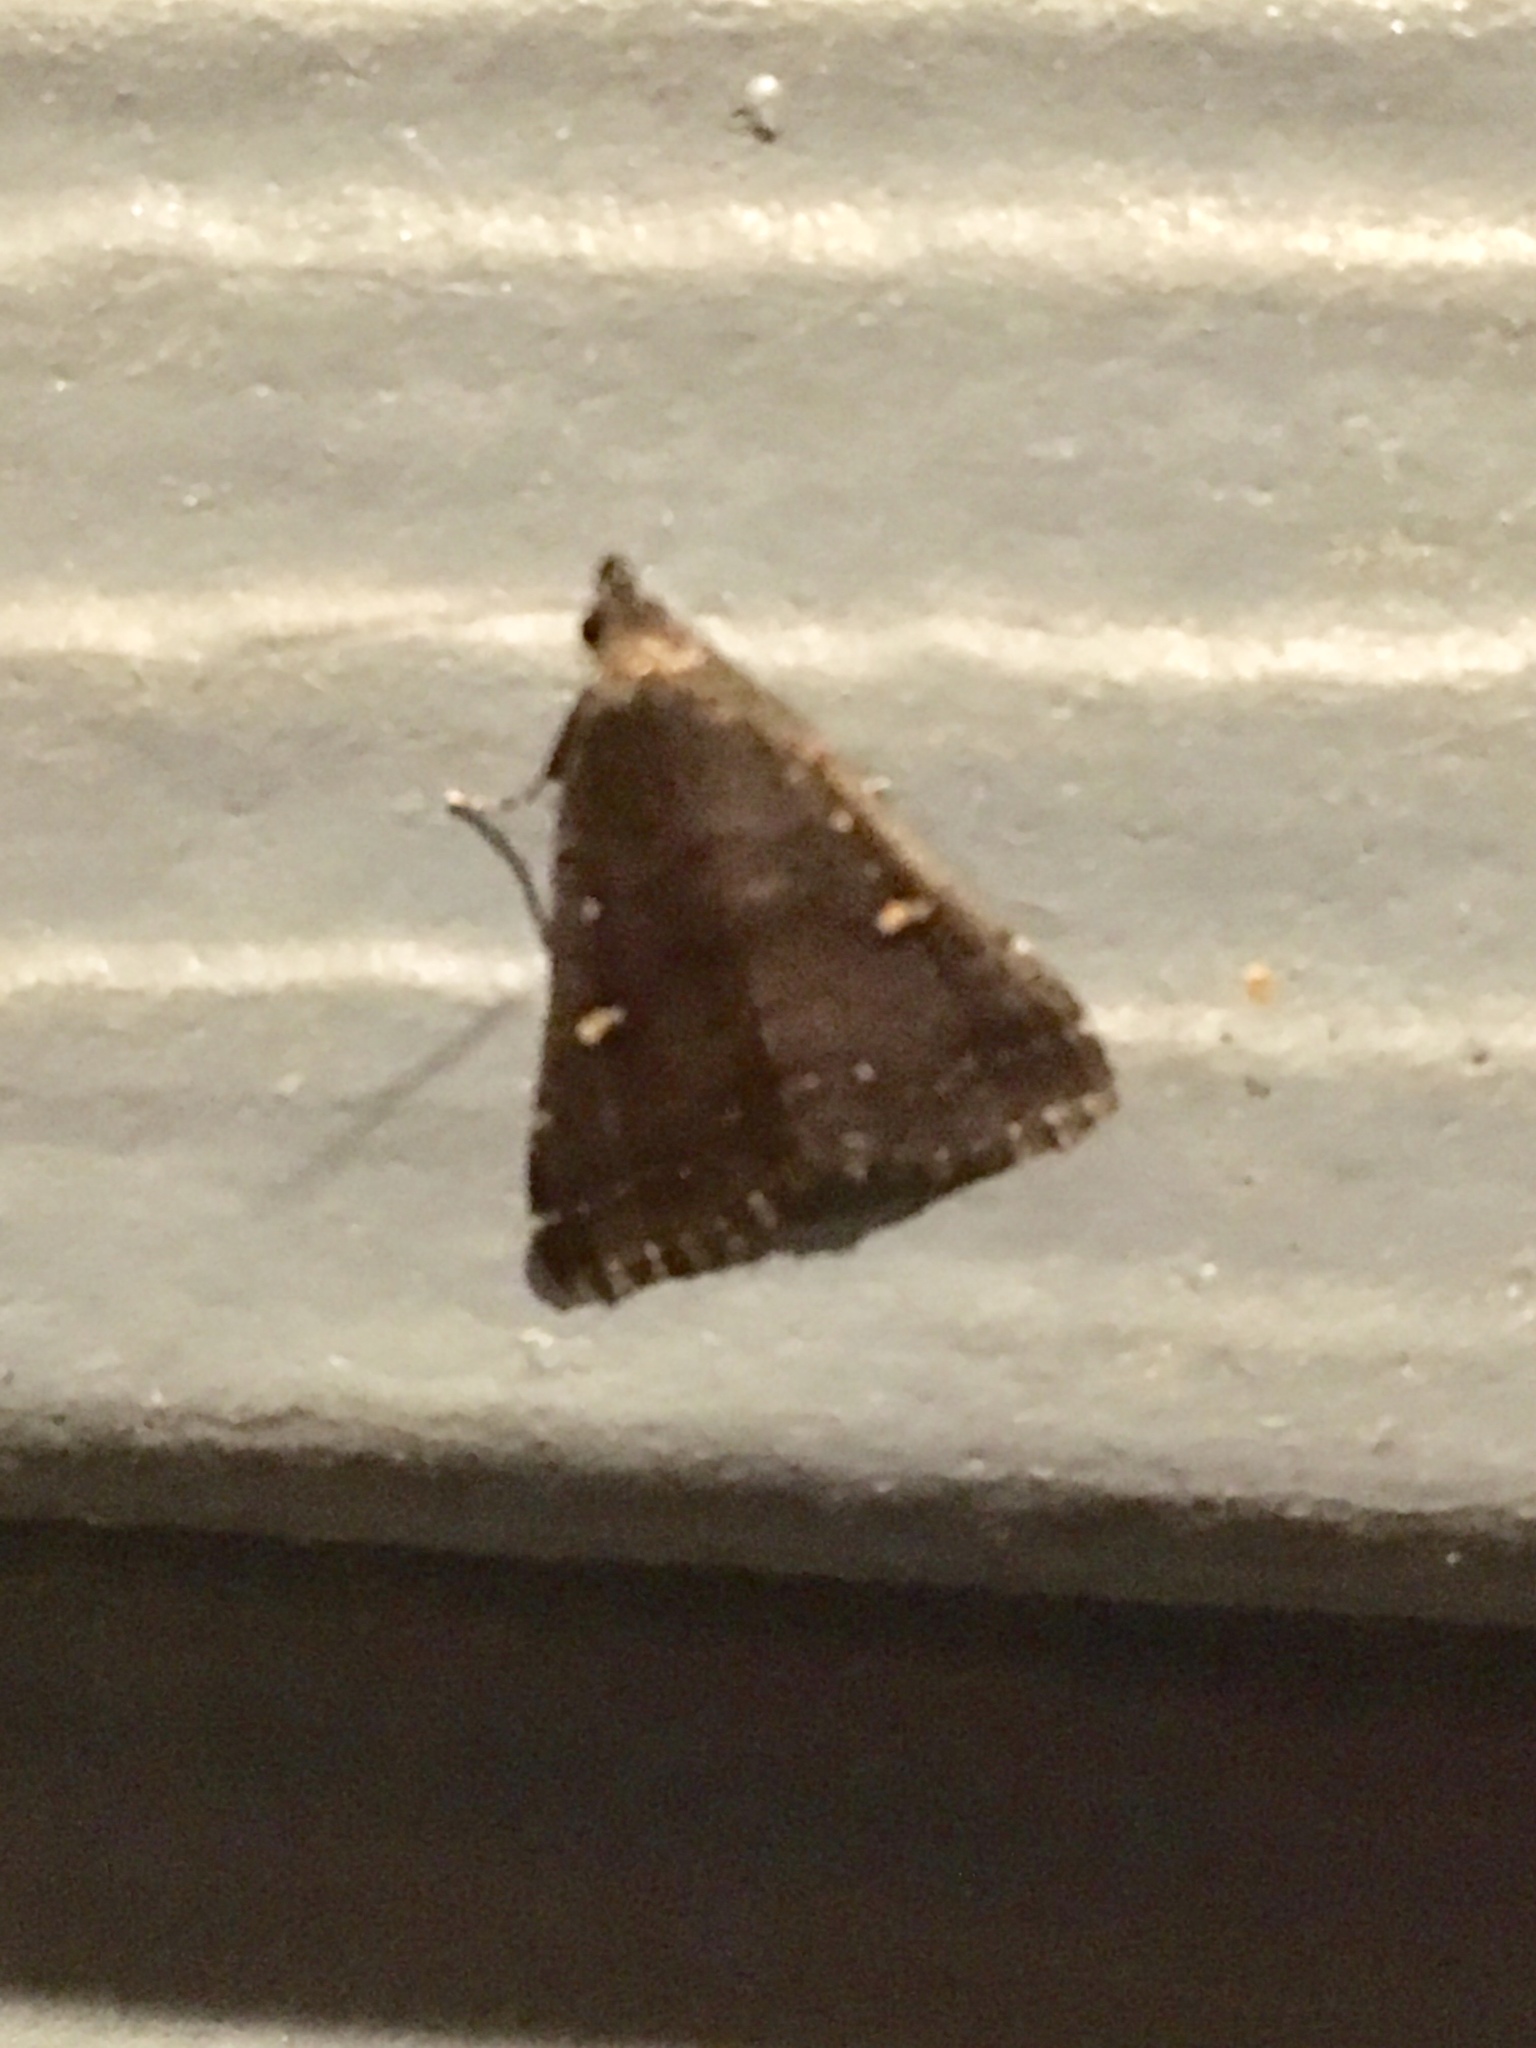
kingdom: Animalia
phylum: Arthropoda
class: Insecta
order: Lepidoptera
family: Erebidae
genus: Tetanolita
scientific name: Tetanolita mynesalis
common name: Smoky tetanolita moth
